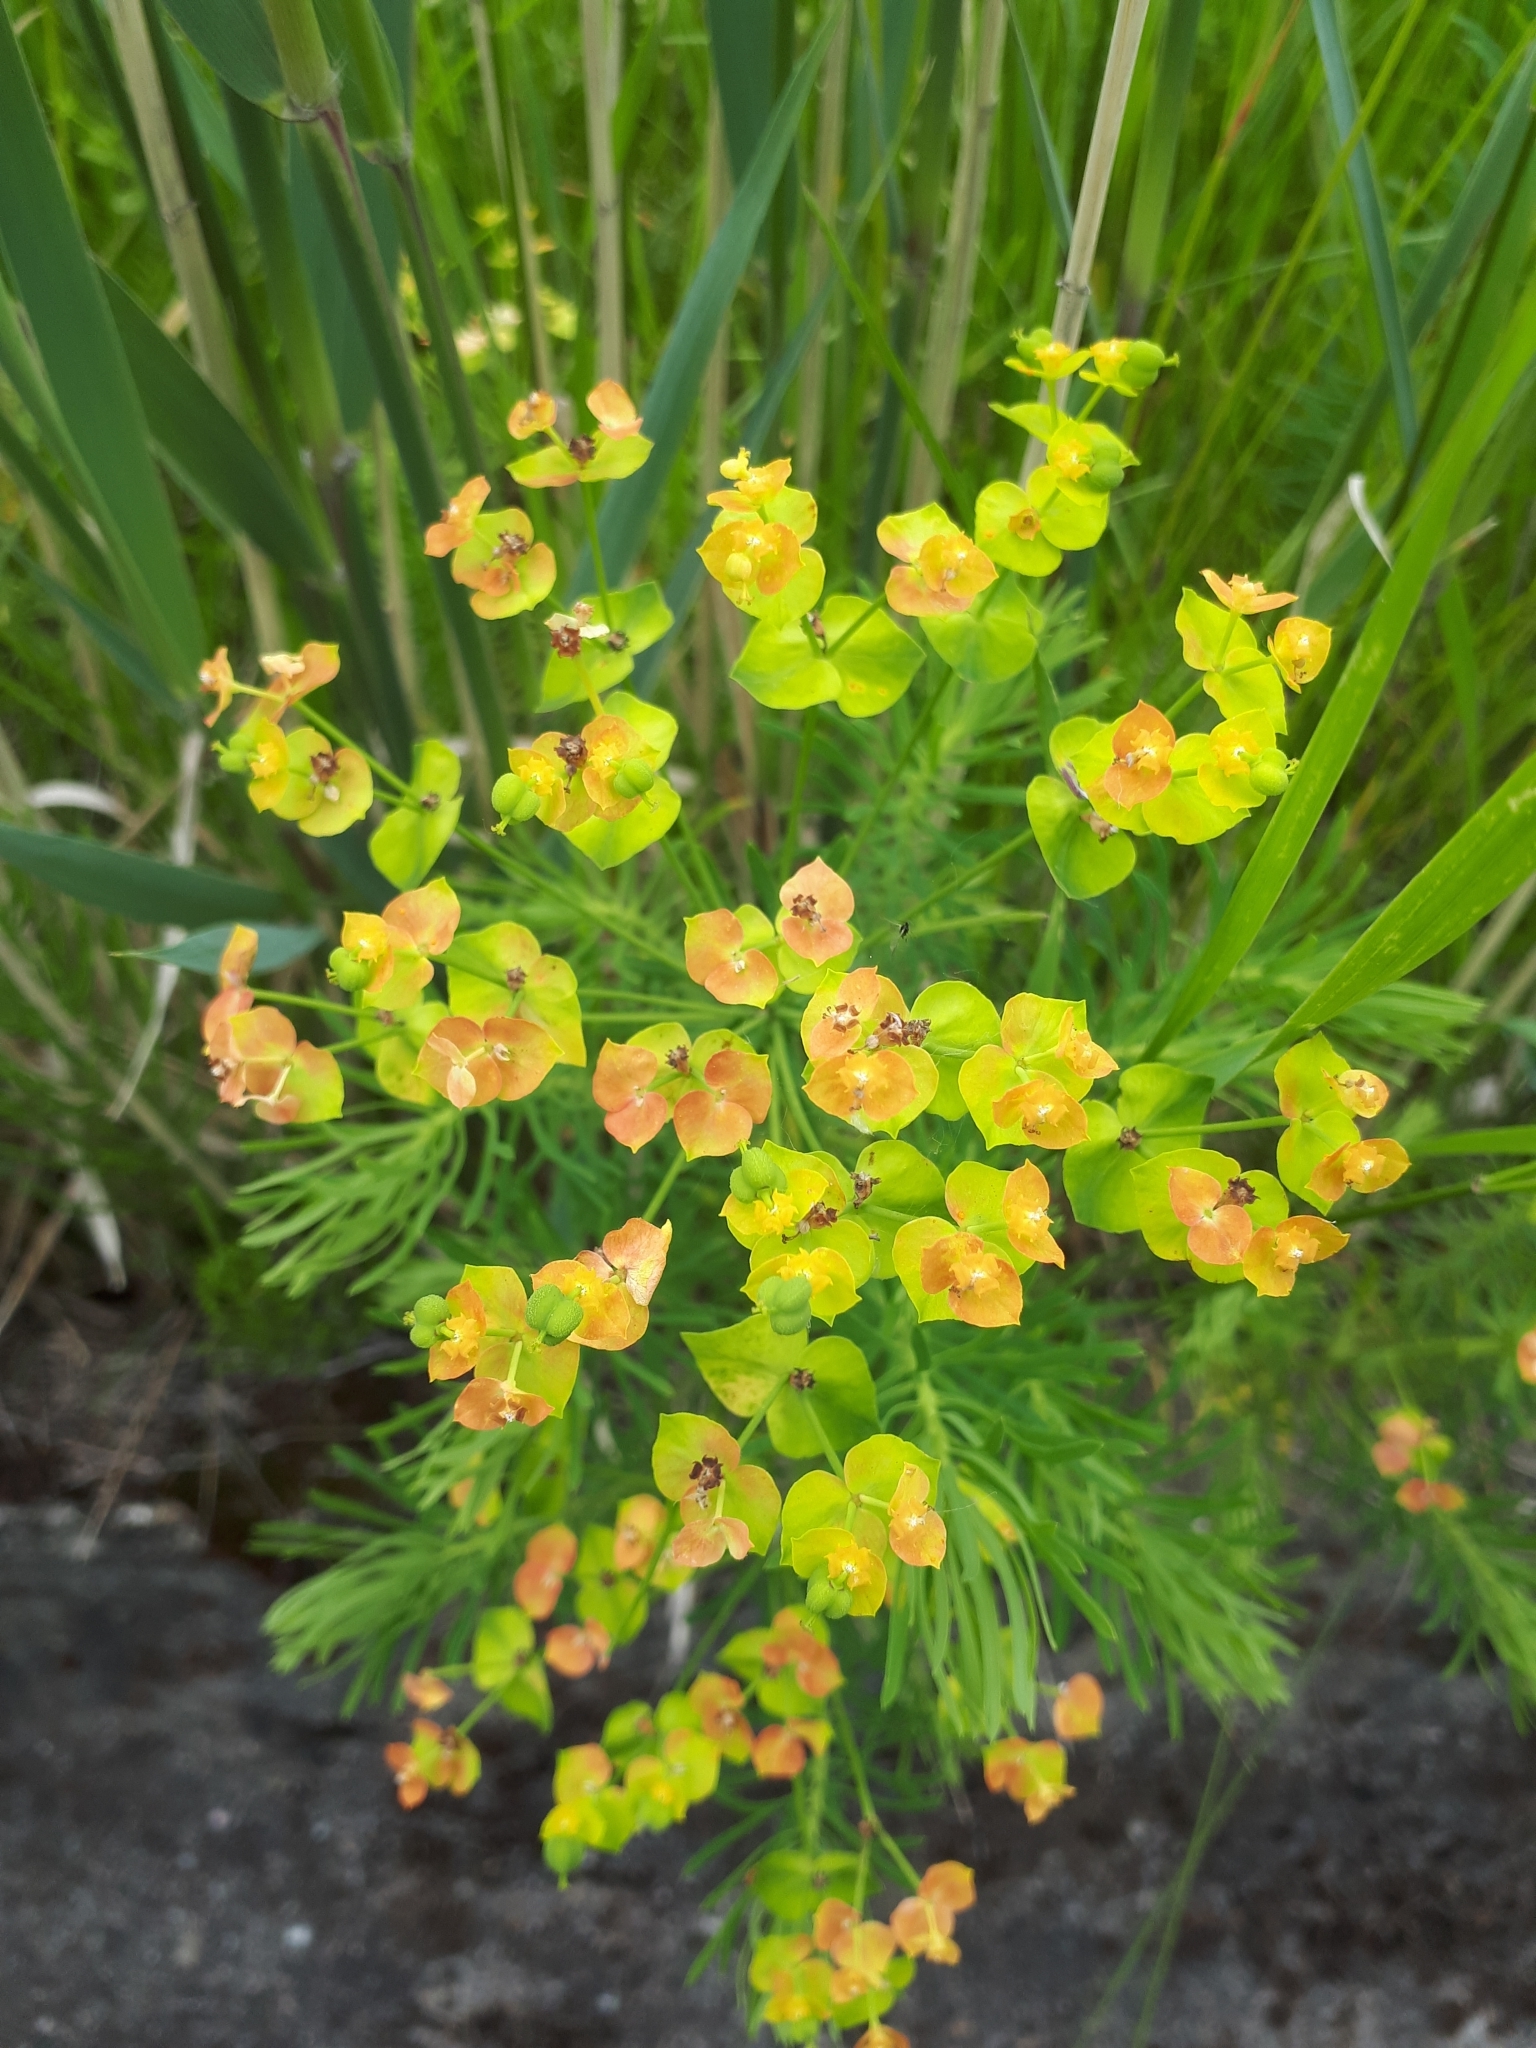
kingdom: Plantae
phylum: Tracheophyta
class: Magnoliopsida
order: Malpighiales
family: Euphorbiaceae
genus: Euphorbia
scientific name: Euphorbia cyparissias
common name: Cypress spurge
